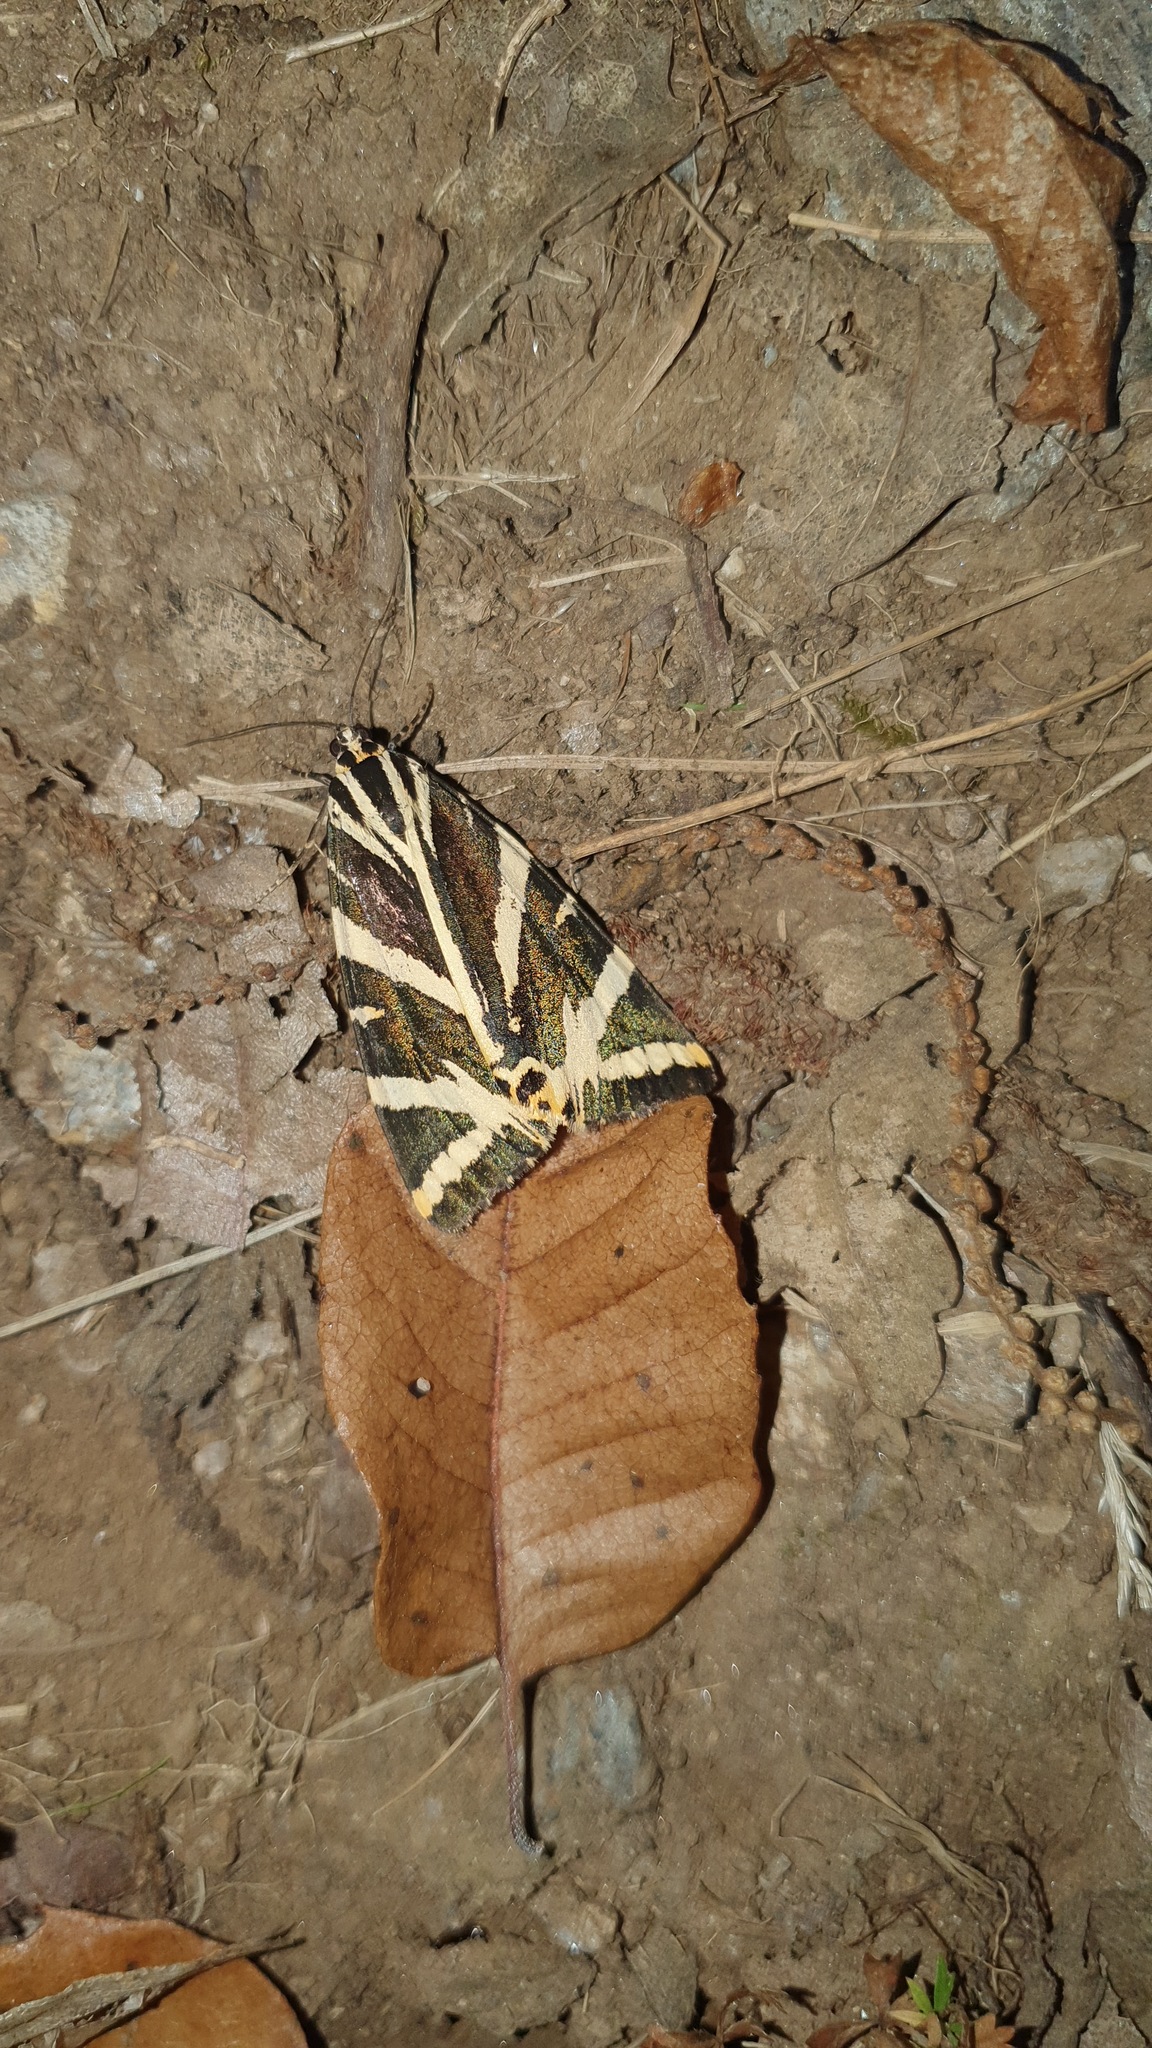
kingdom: Animalia
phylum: Arthropoda
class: Insecta
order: Lepidoptera
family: Erebidae
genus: Euplagia
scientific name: Euplagia quadripunctaria
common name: Jersey tiger
